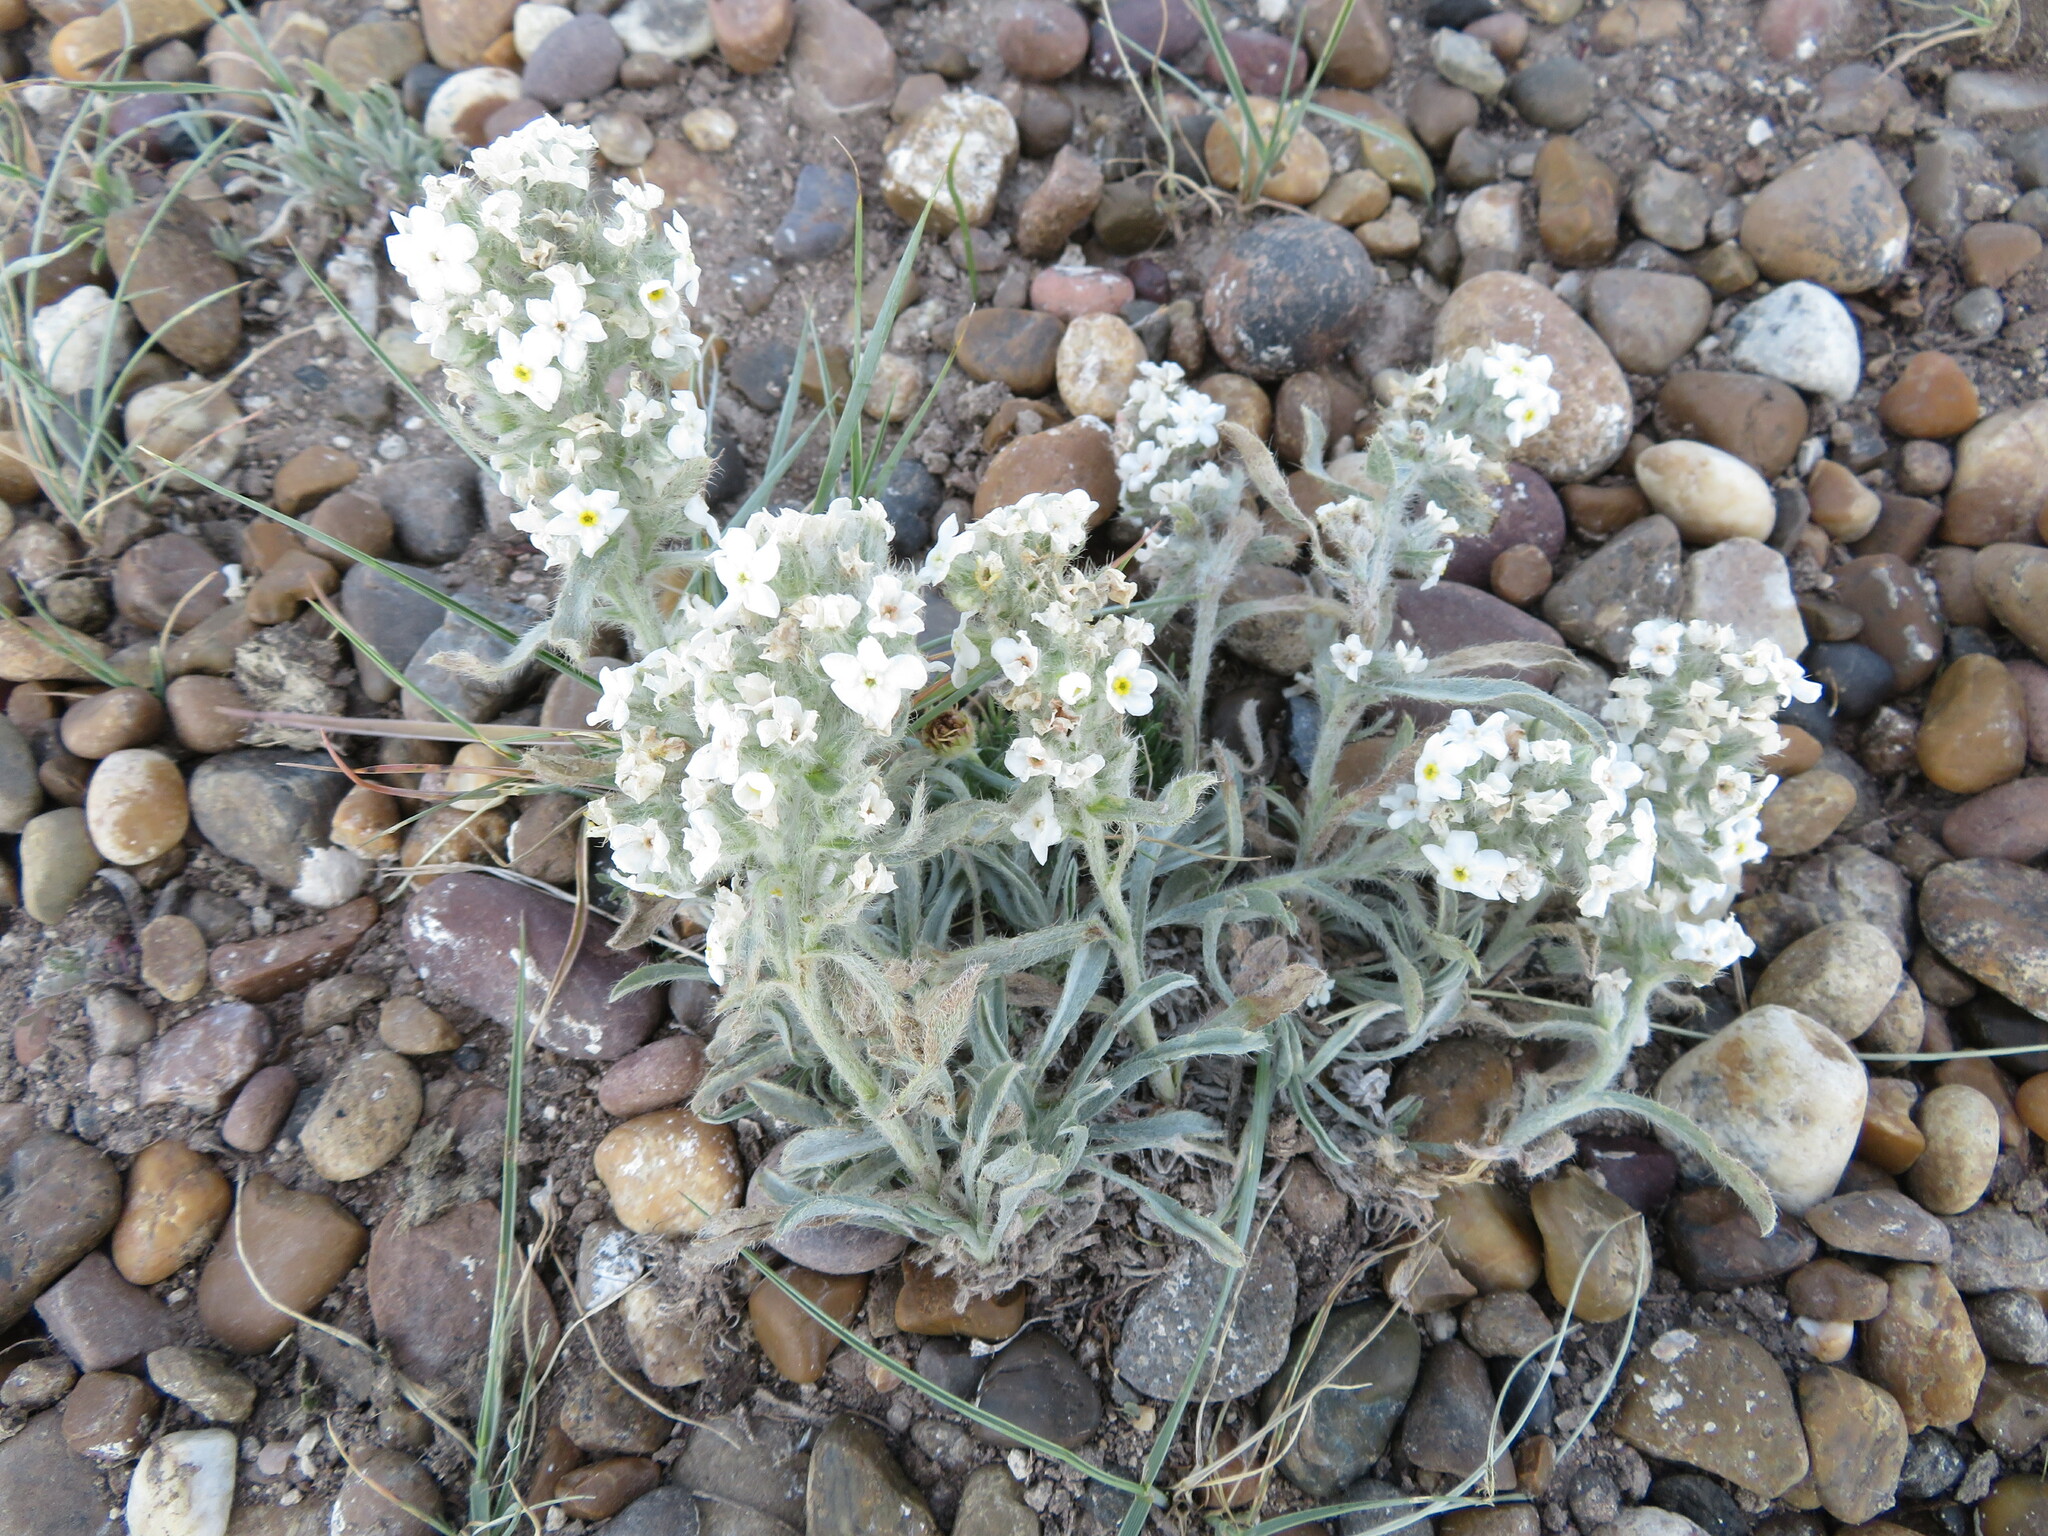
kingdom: Plantae
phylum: Tracheophyta
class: Magnoliopsida
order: Boraginales
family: Boraginaceae
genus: Oreocarya
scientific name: Oreocarya glomerata
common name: Macoun's cryptantha
